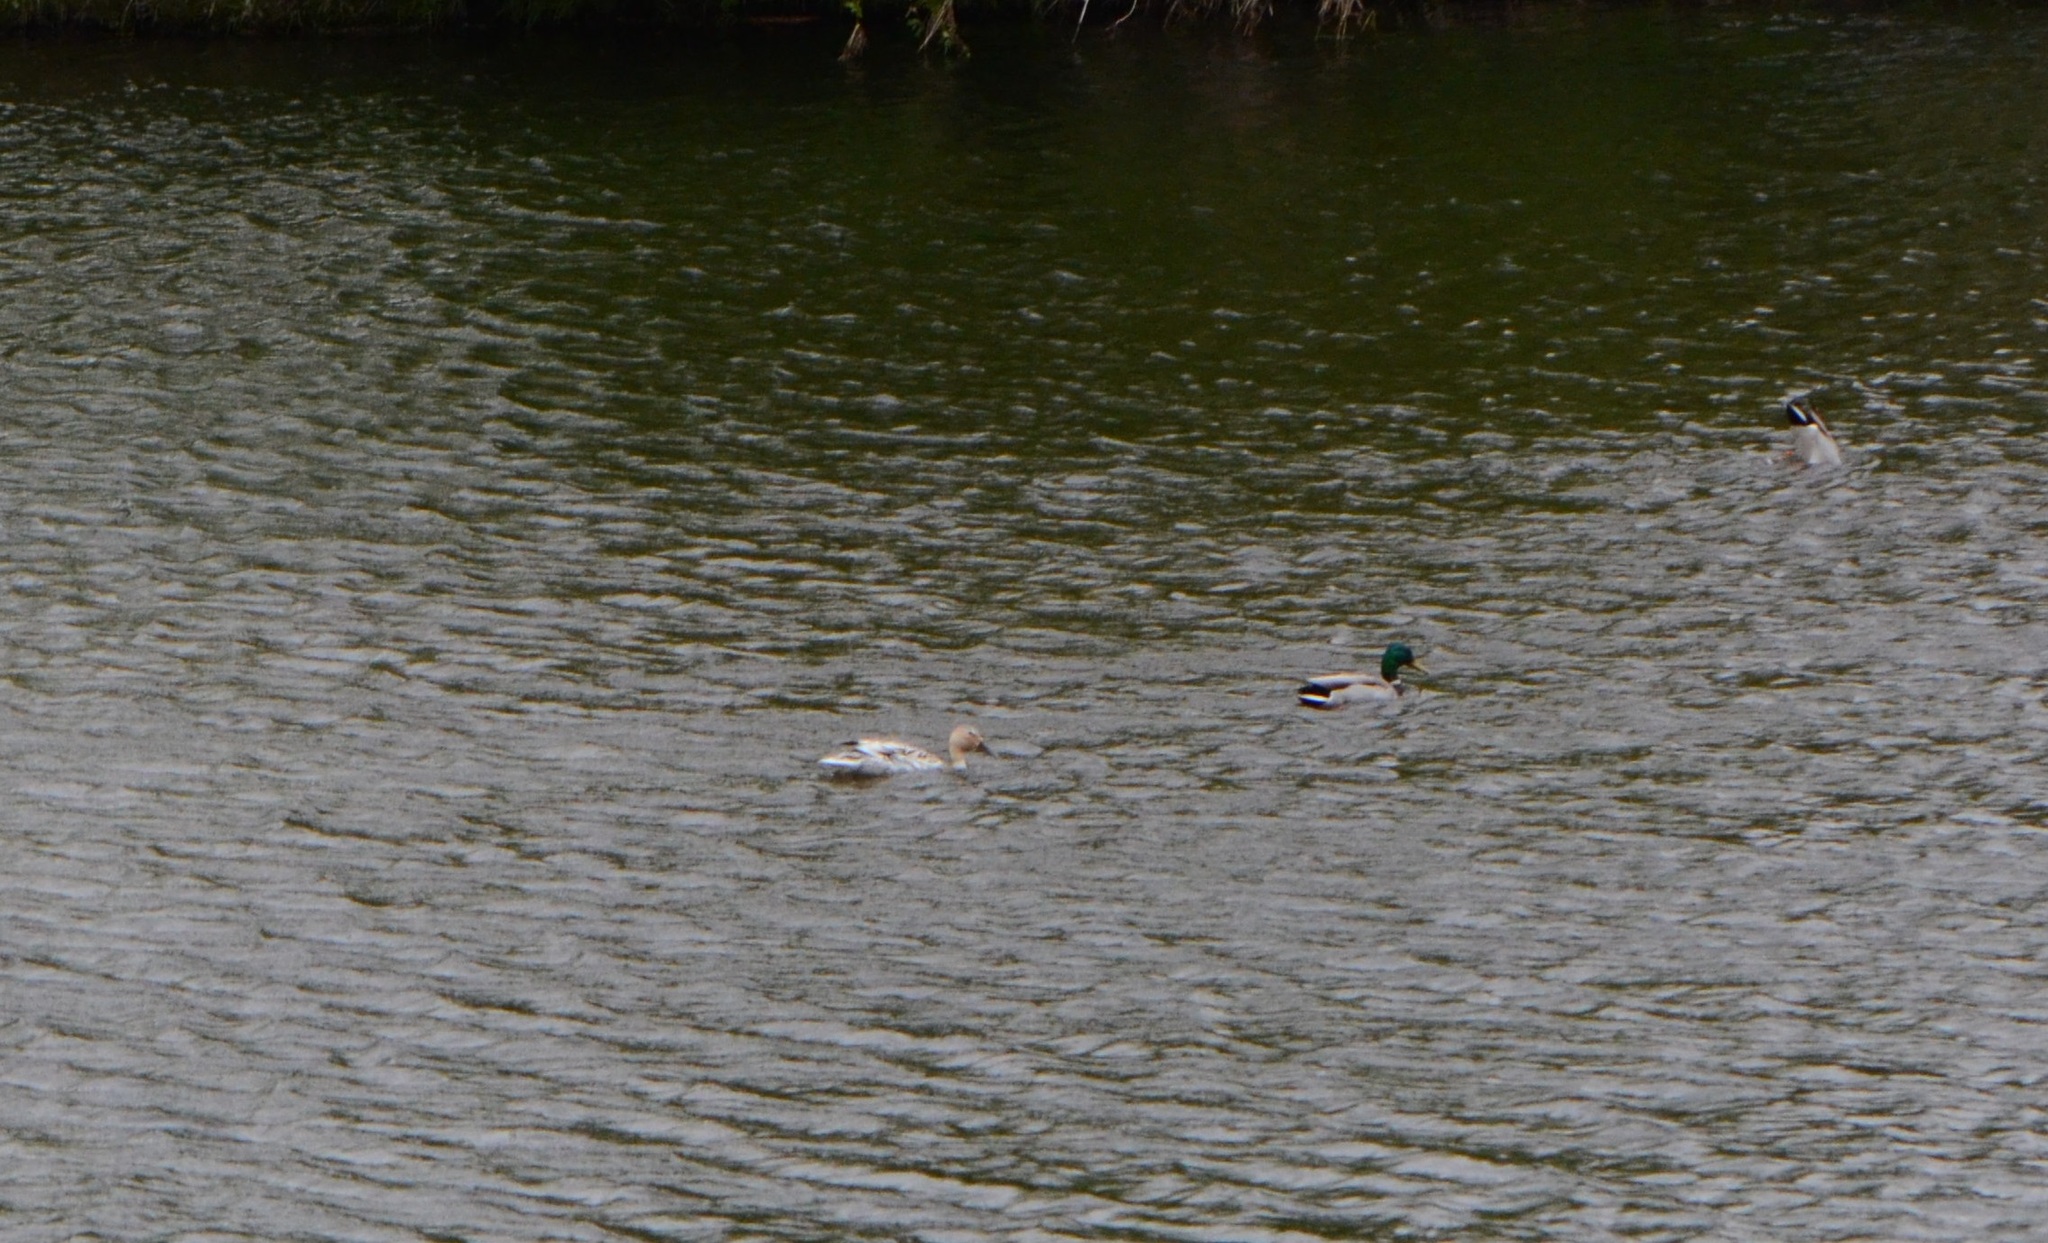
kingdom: Animalia
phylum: Chordata
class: Aves
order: Anseriformes
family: Anatidae
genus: Anas
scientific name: Anas platyrhynchos
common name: Mallard
